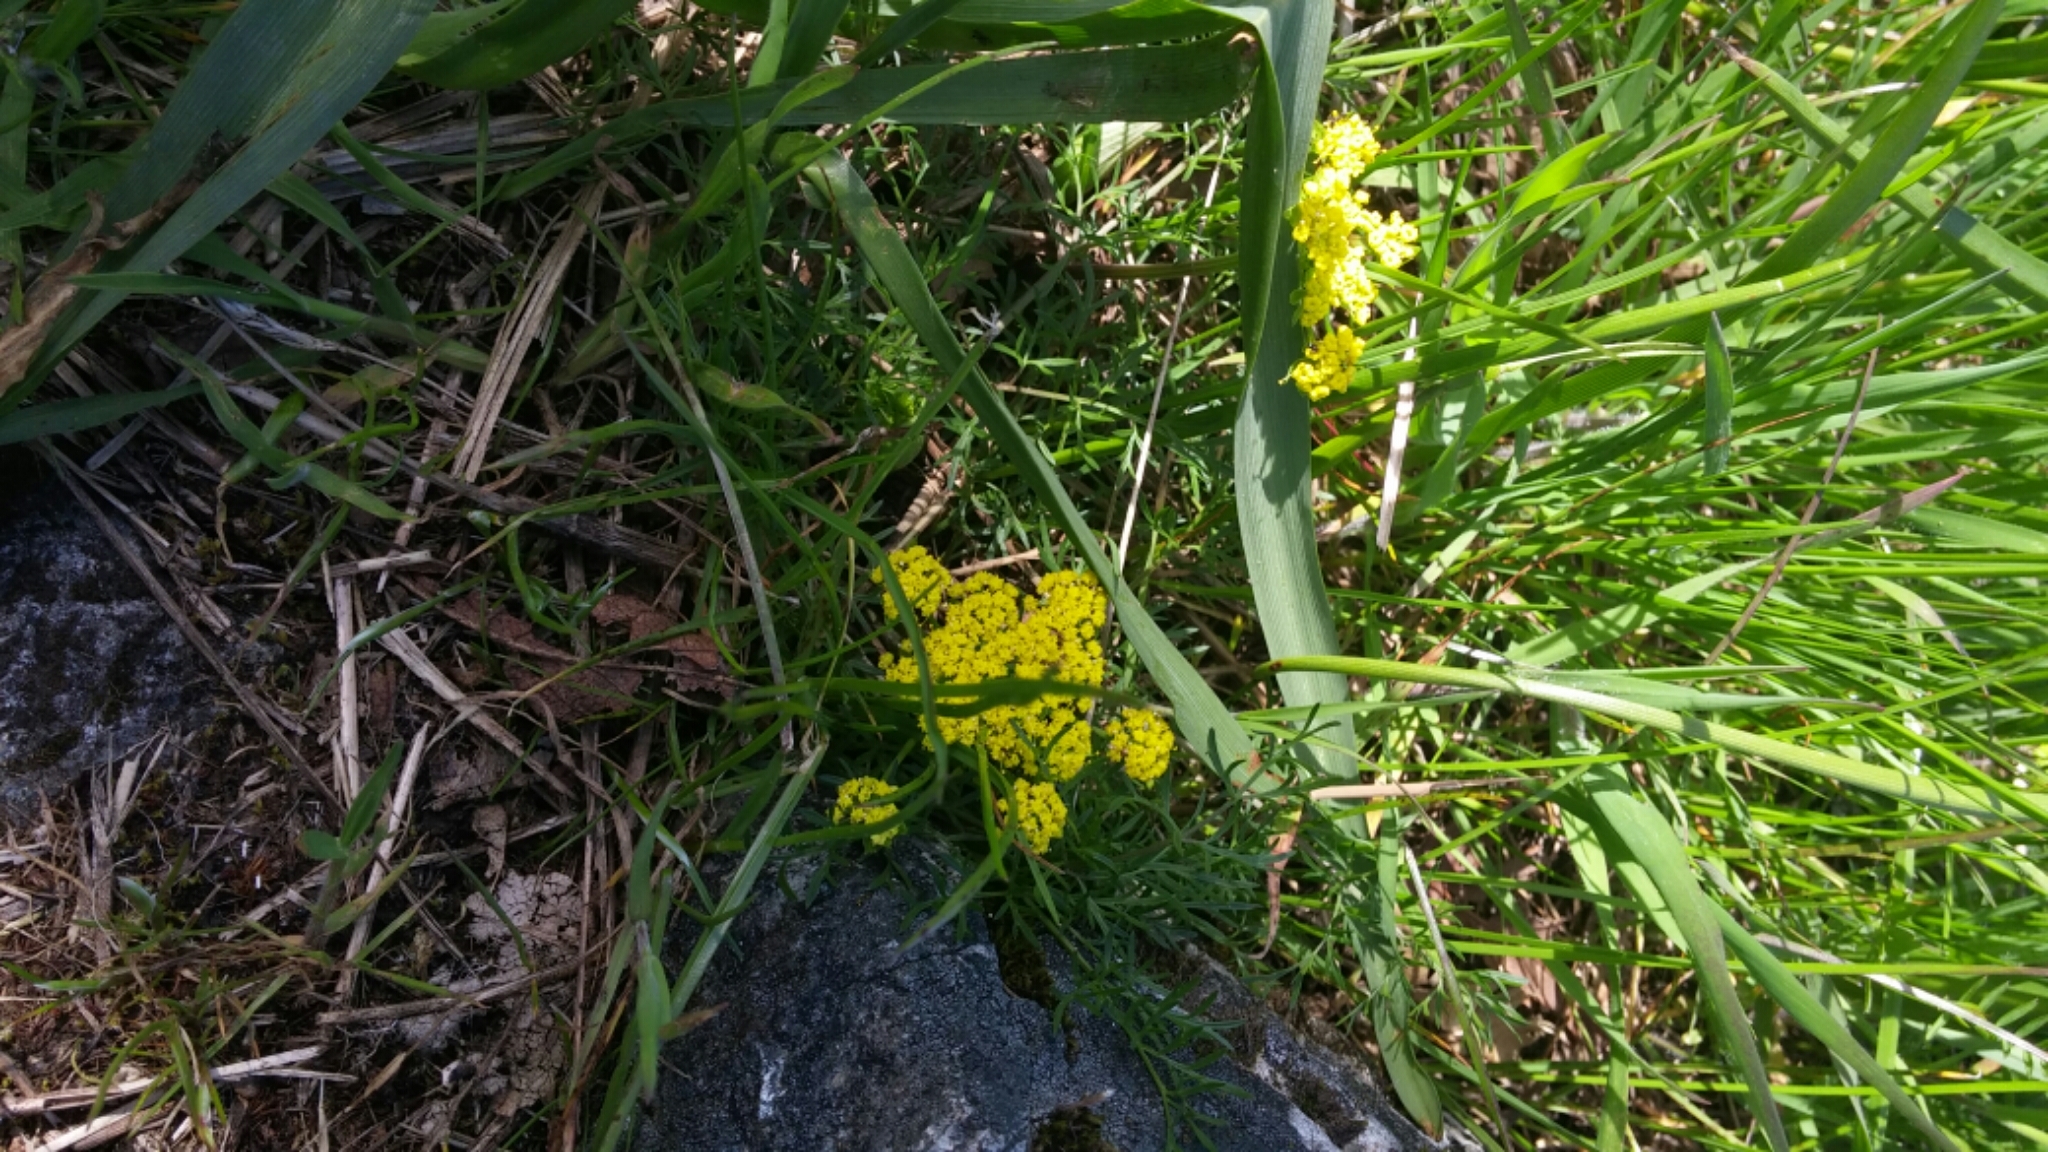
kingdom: Plantae
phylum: Tracheophyta
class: Magnoliopsida
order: Apiales
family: Apiaceae
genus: Lomatium
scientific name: Lomatium utriculatum
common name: Fine-leaf desert-parsley
